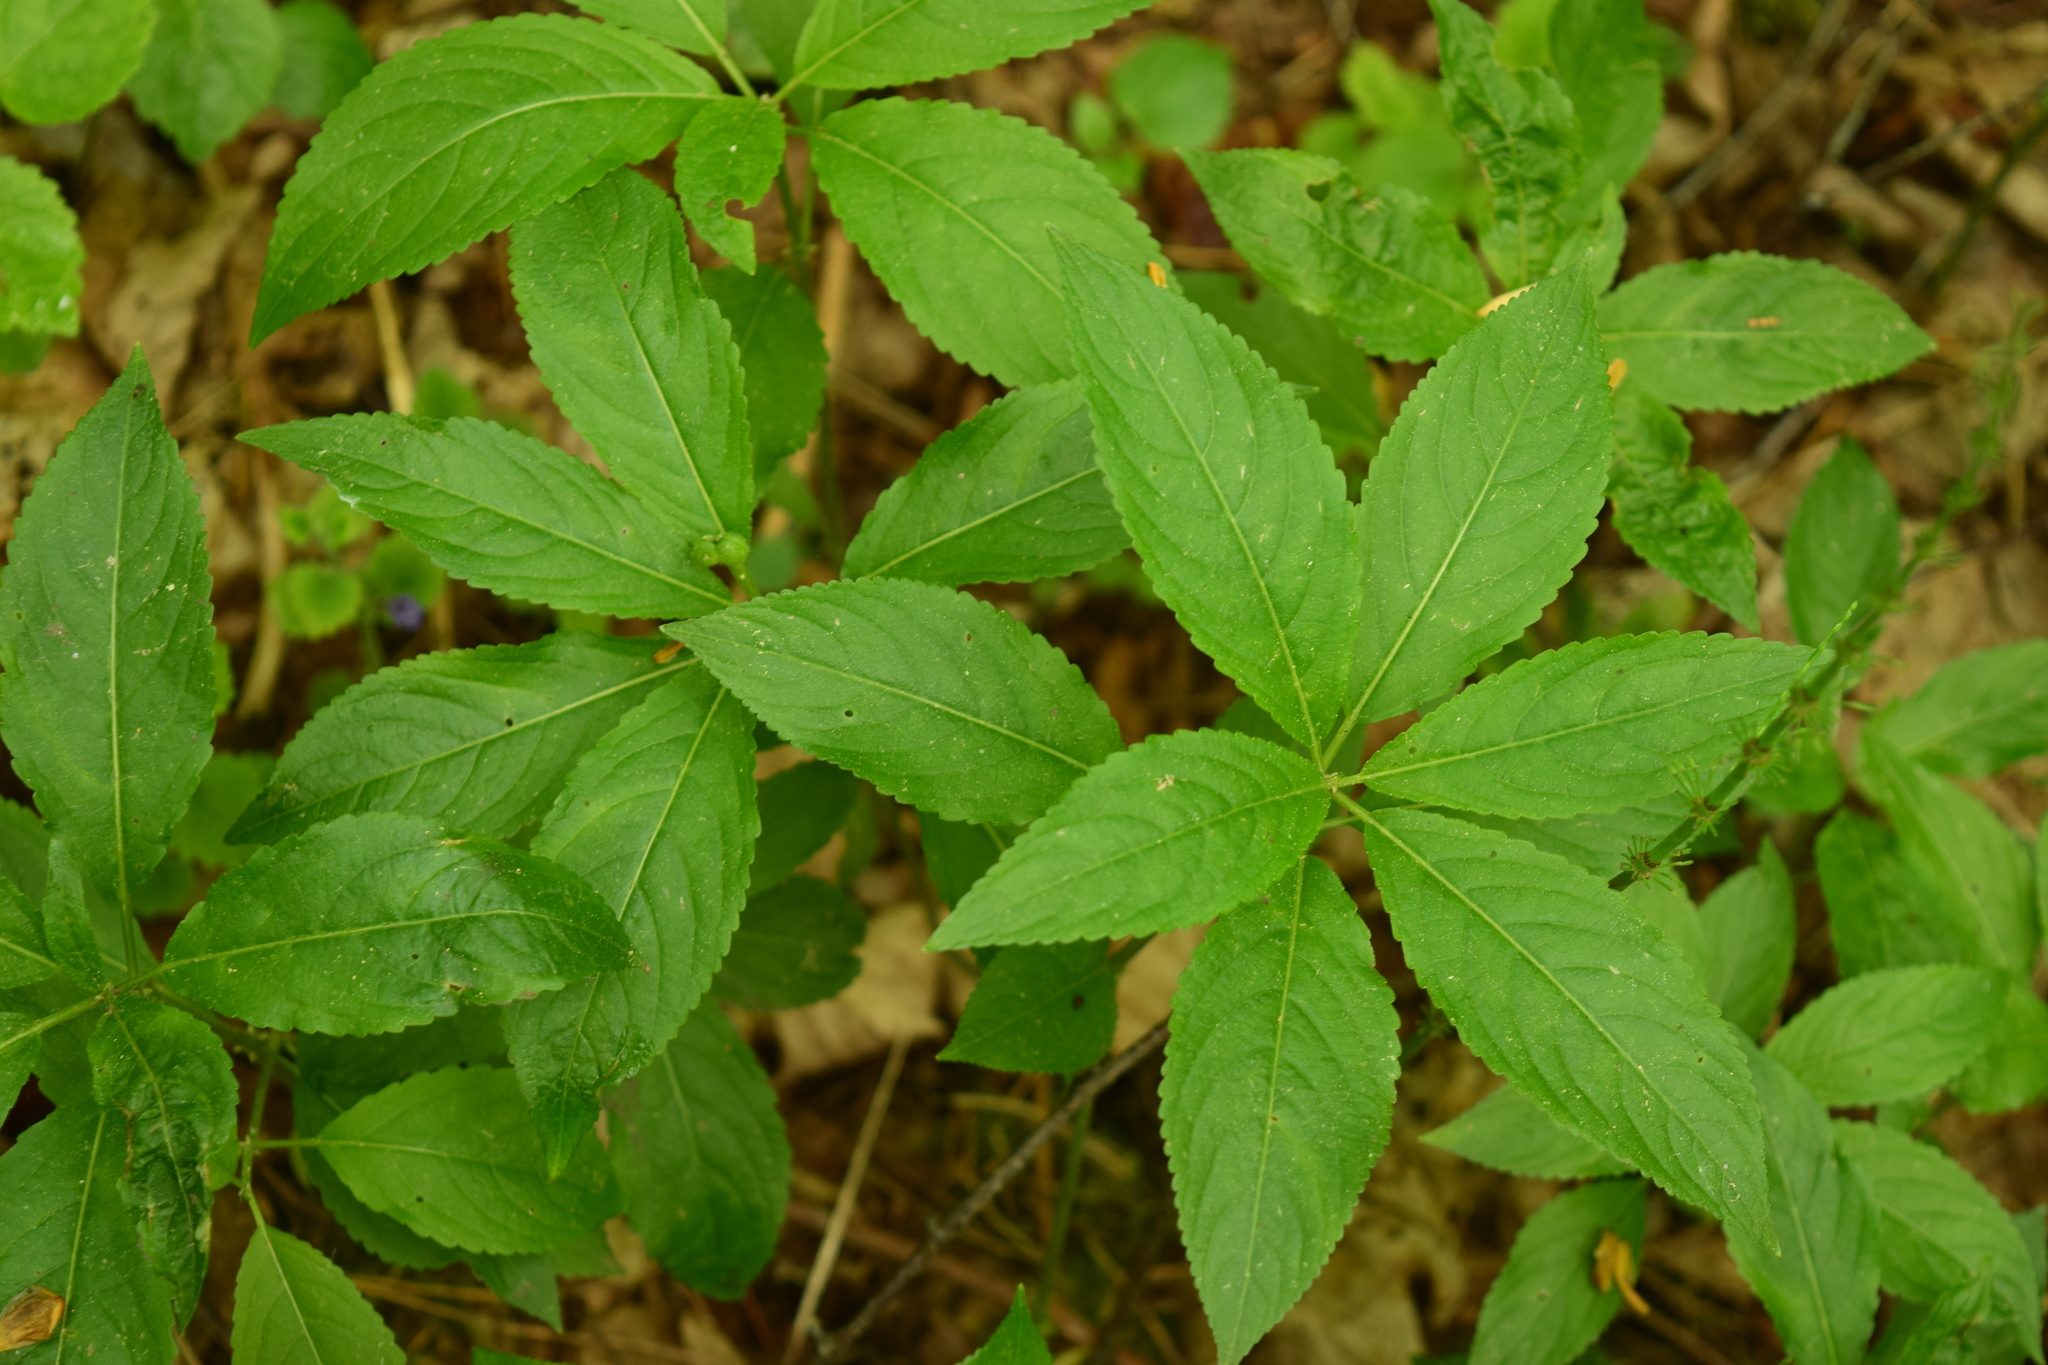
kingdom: Plantae
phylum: Tracheophyta
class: Magnoliopsida
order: Malpighiales
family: Euphorbiaceae
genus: Mercurialis
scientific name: Mercurialis perennis
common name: Dog mercury
